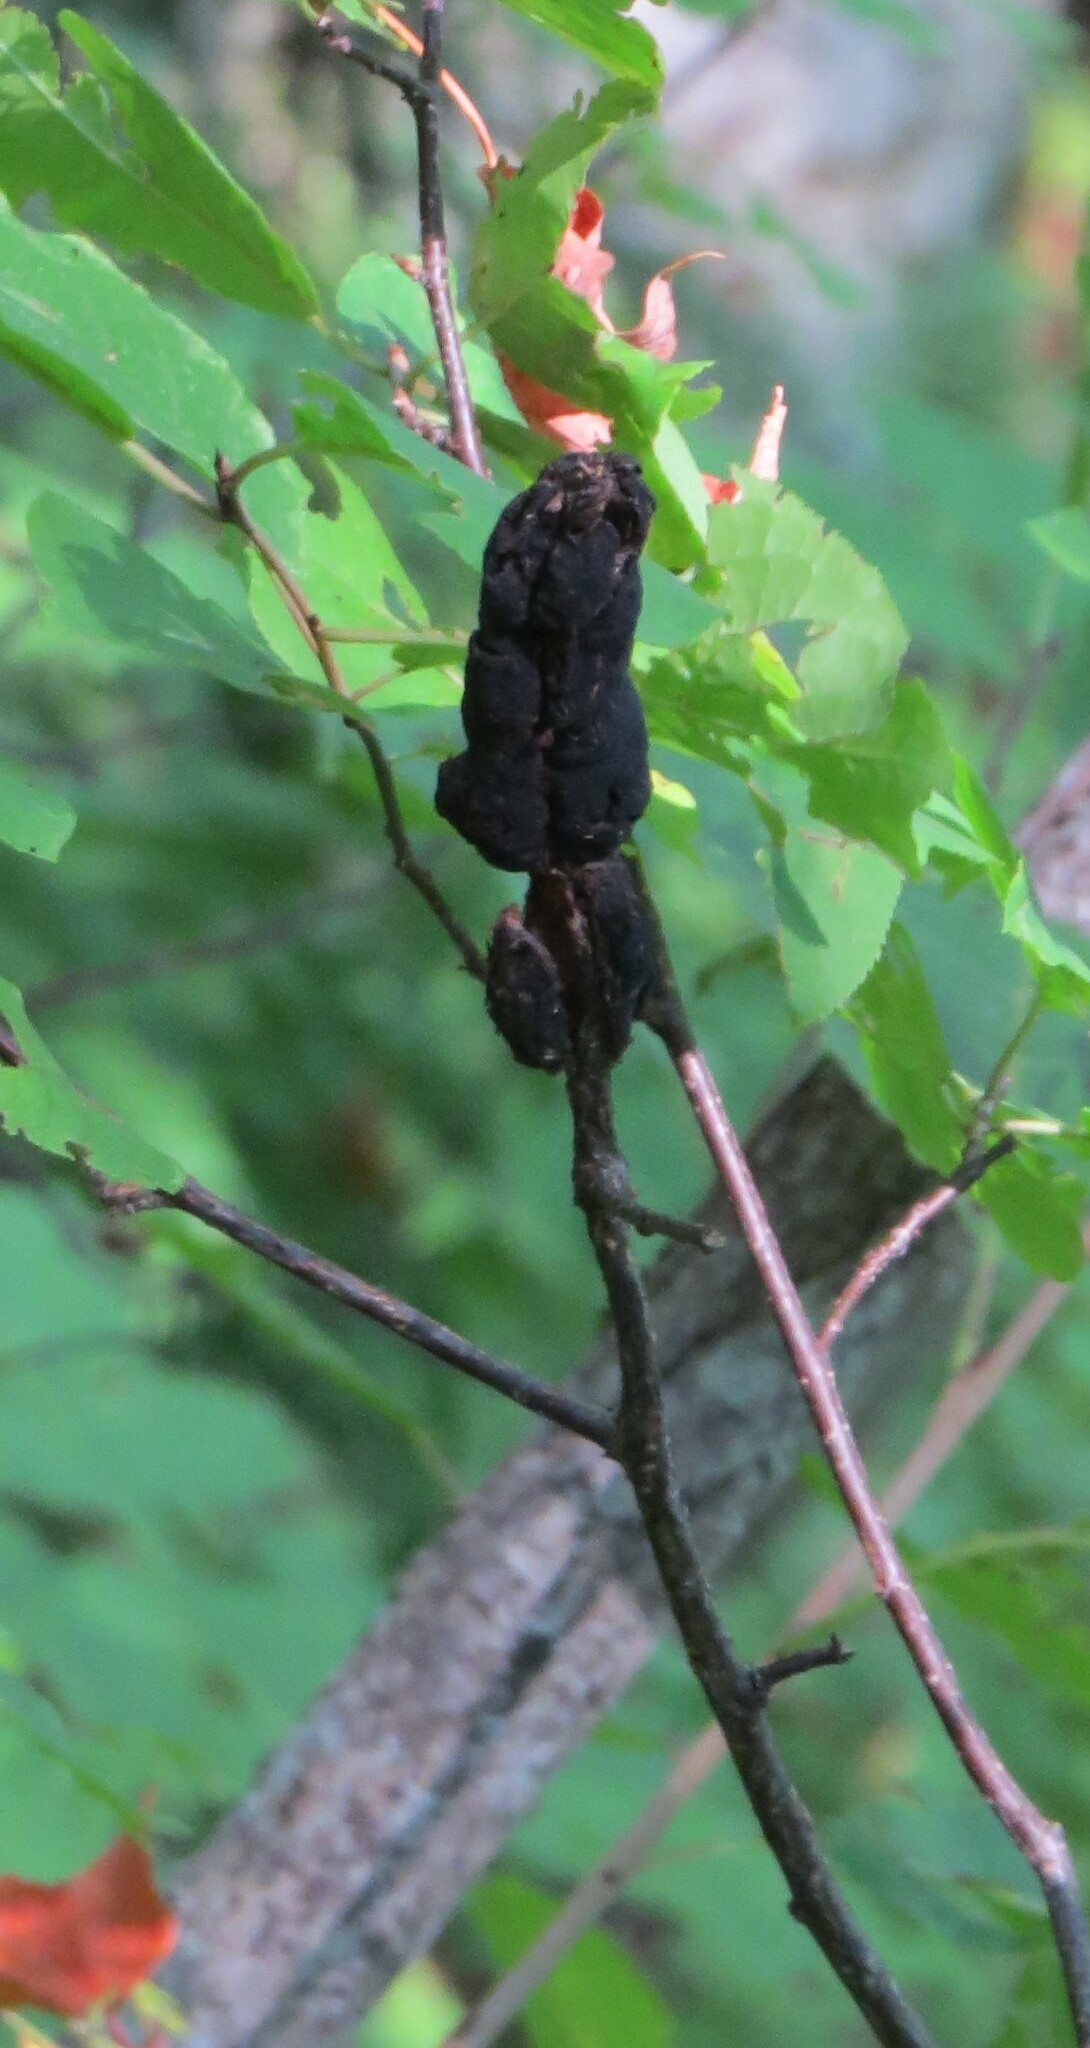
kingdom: Fungi
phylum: Ascomycota
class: Dothideomycetes
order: Venturiales
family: Venturiaceae
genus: Apiosporina
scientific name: Apiosporina morbosa
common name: Black knot
